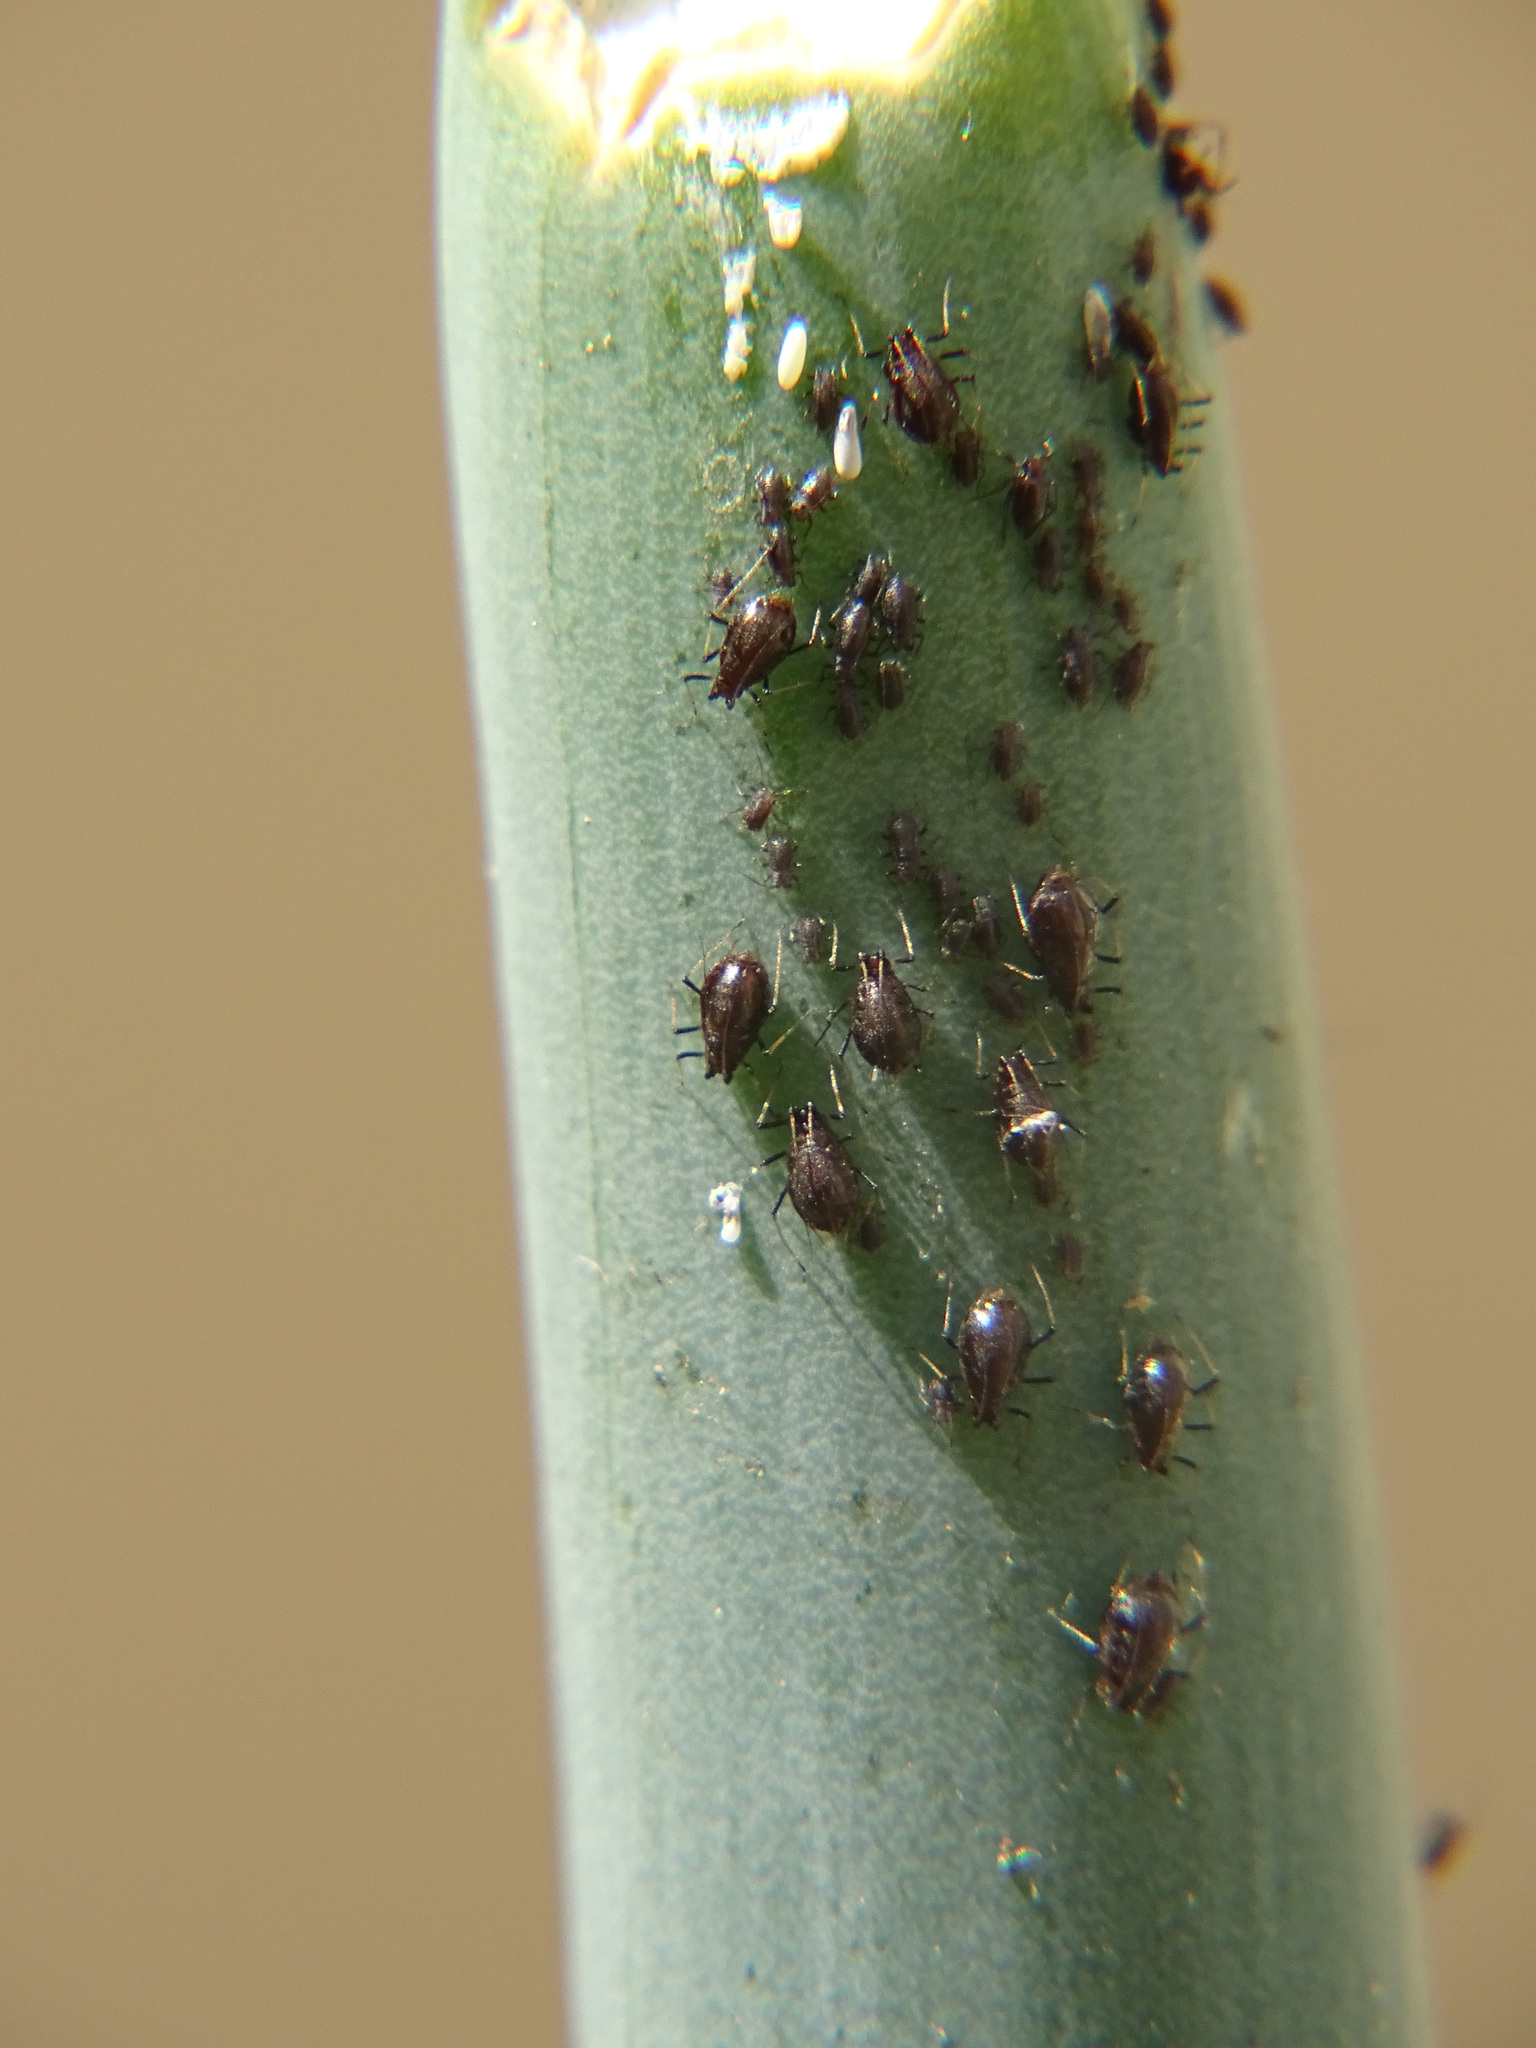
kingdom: Animalia
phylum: Arthropoda
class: Insecta
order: Hemiptera
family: Aphididae
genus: Neotoxoptera
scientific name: Neotoxoptera formosana
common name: Onion aphid
